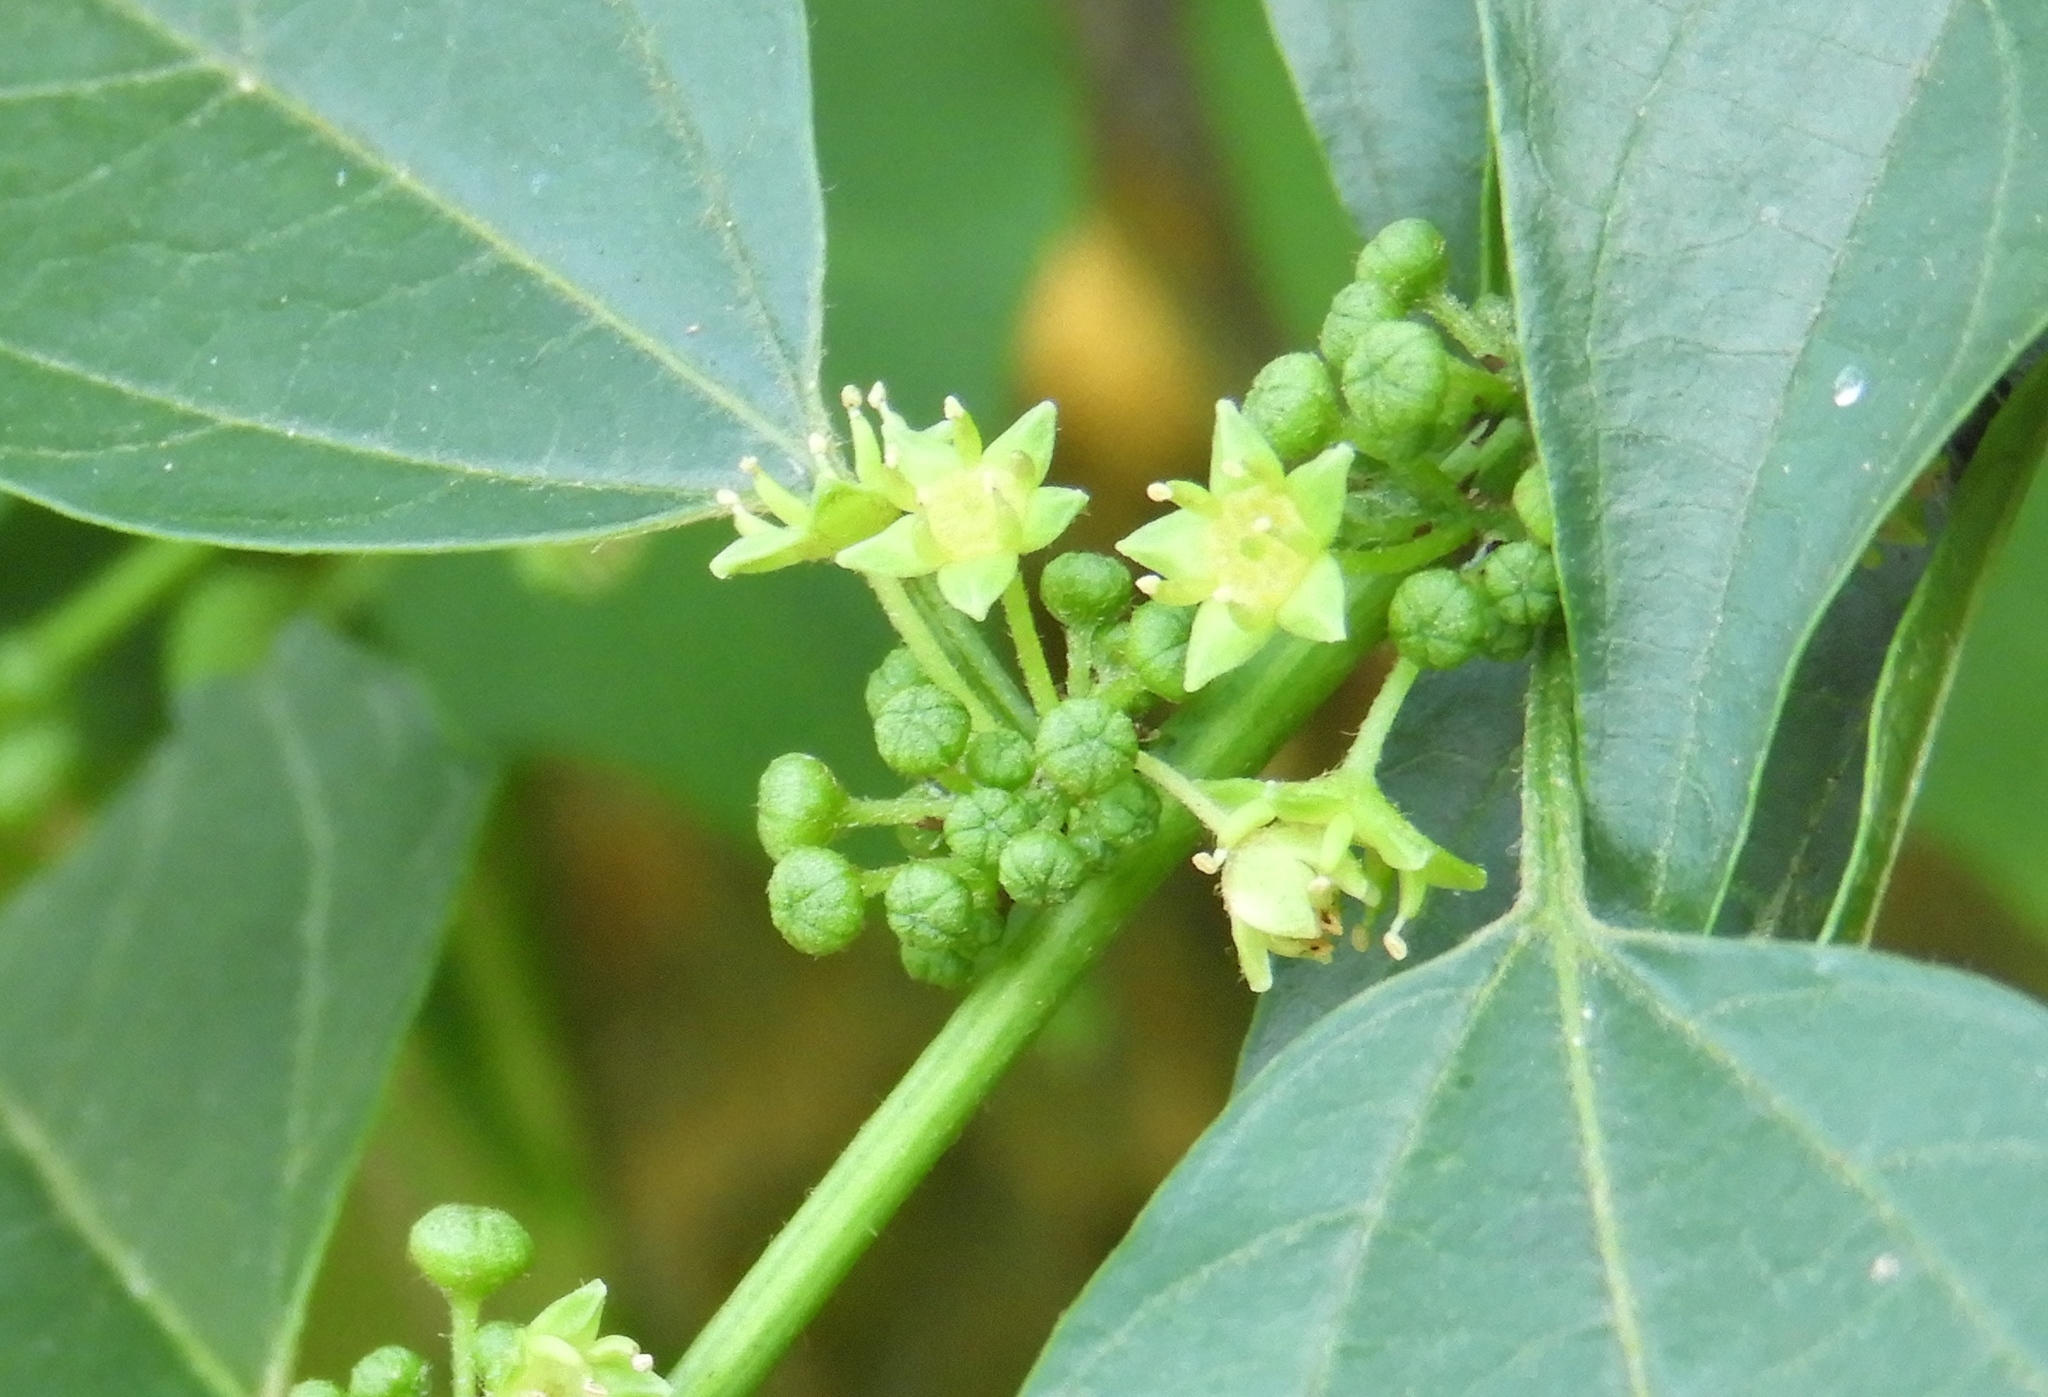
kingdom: Plantae
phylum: Tracheophyta
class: Magnoliopsida
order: Rosales
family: Rhamnaceae
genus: Colubrina
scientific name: Colubrina triflora
